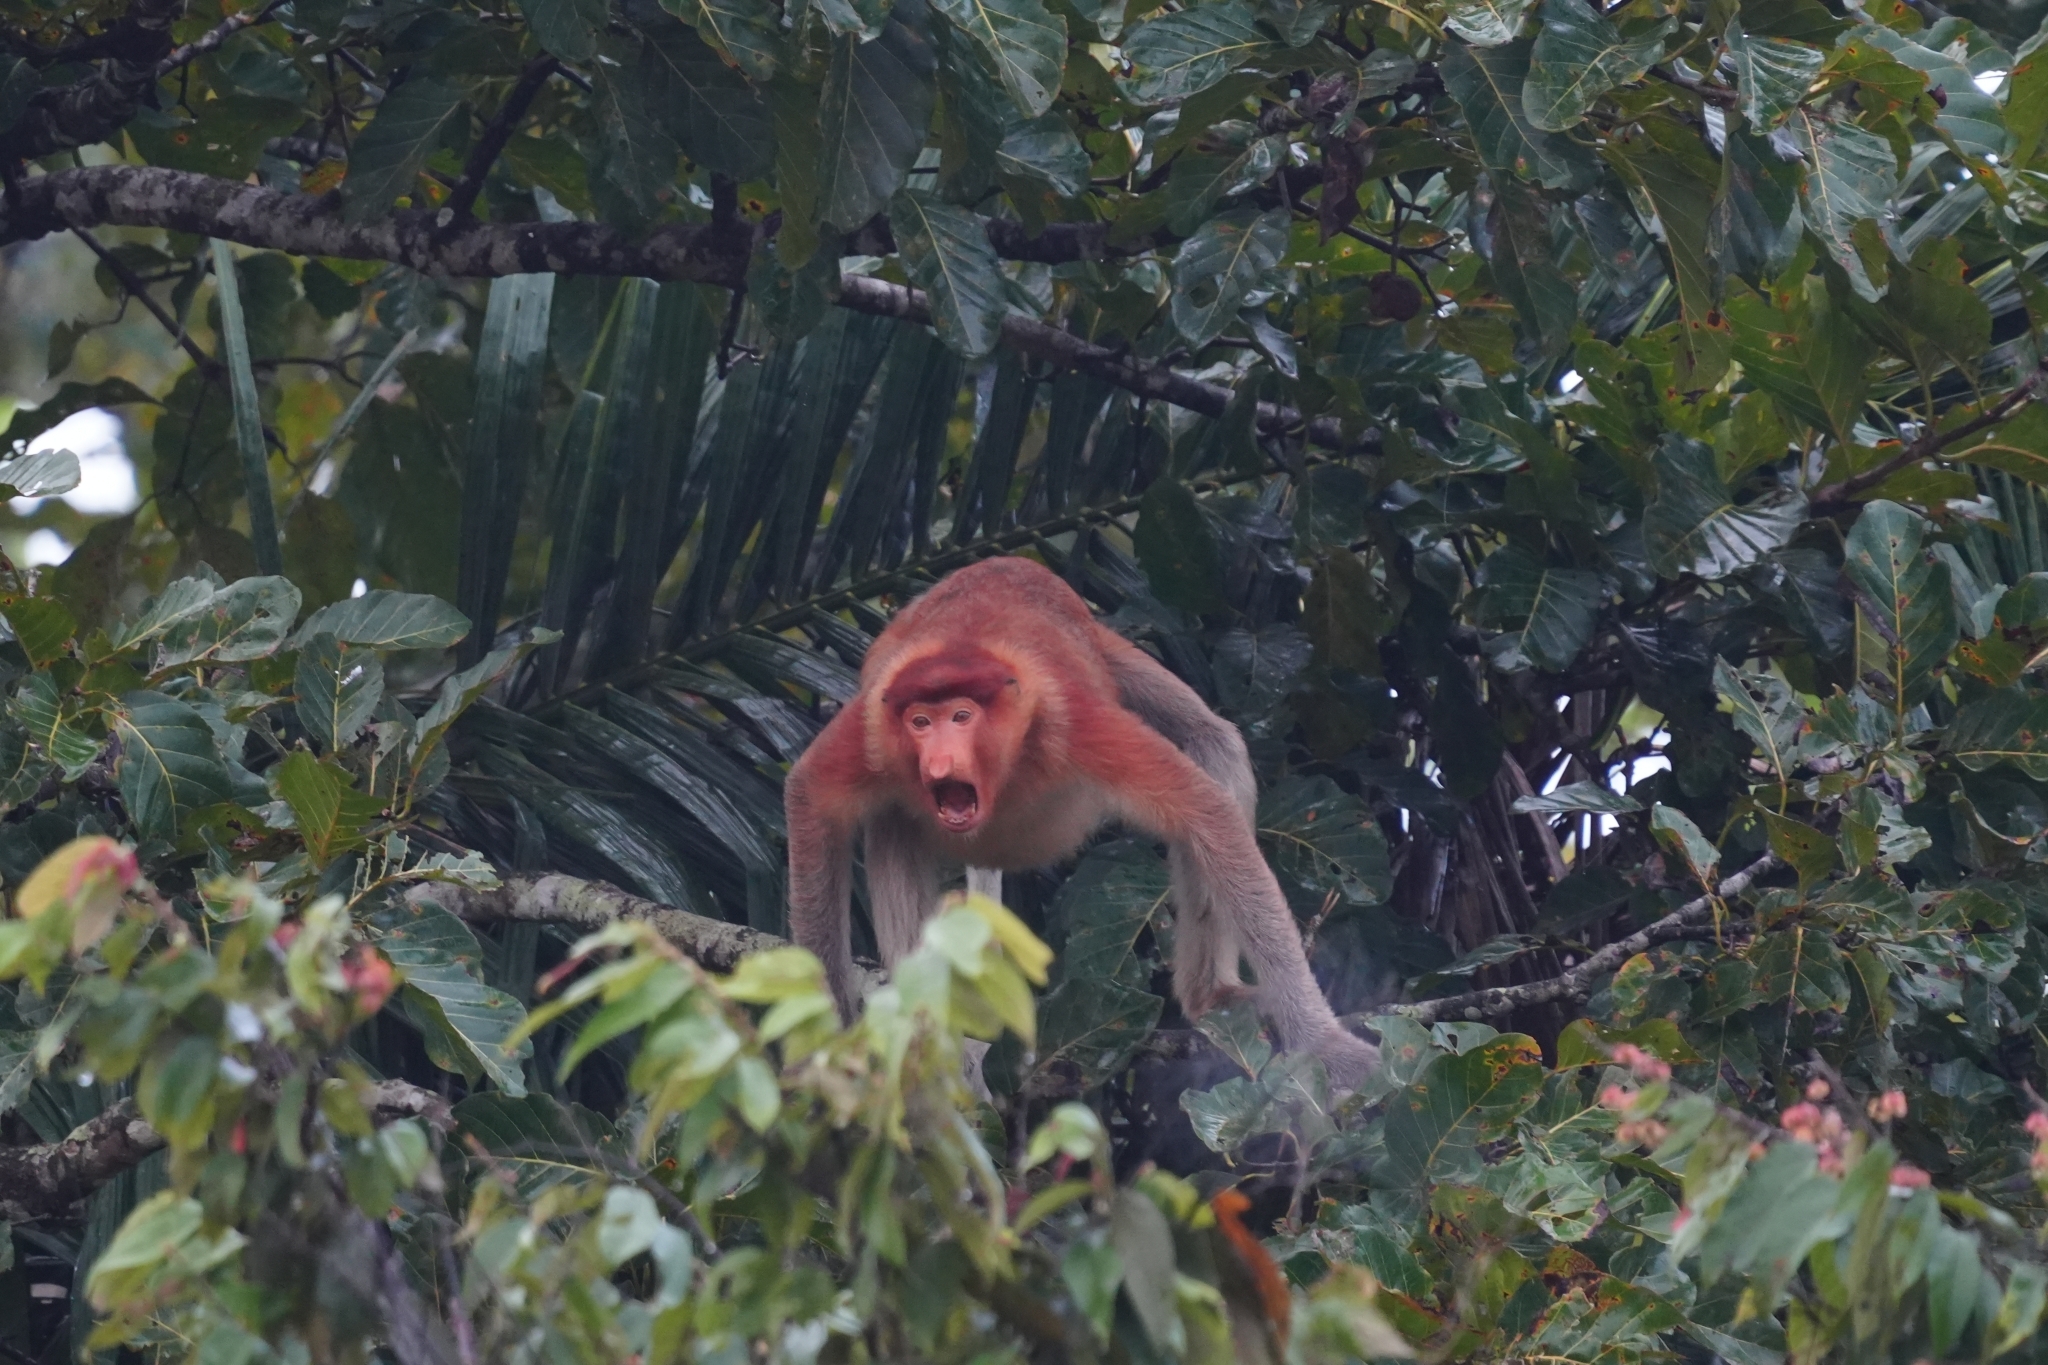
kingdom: Animalia
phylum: Chordata
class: Mammalia
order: Primates
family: Cercopithecidae
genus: Nasalis
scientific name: Nasalis larvatus
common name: Proboscis monkey
